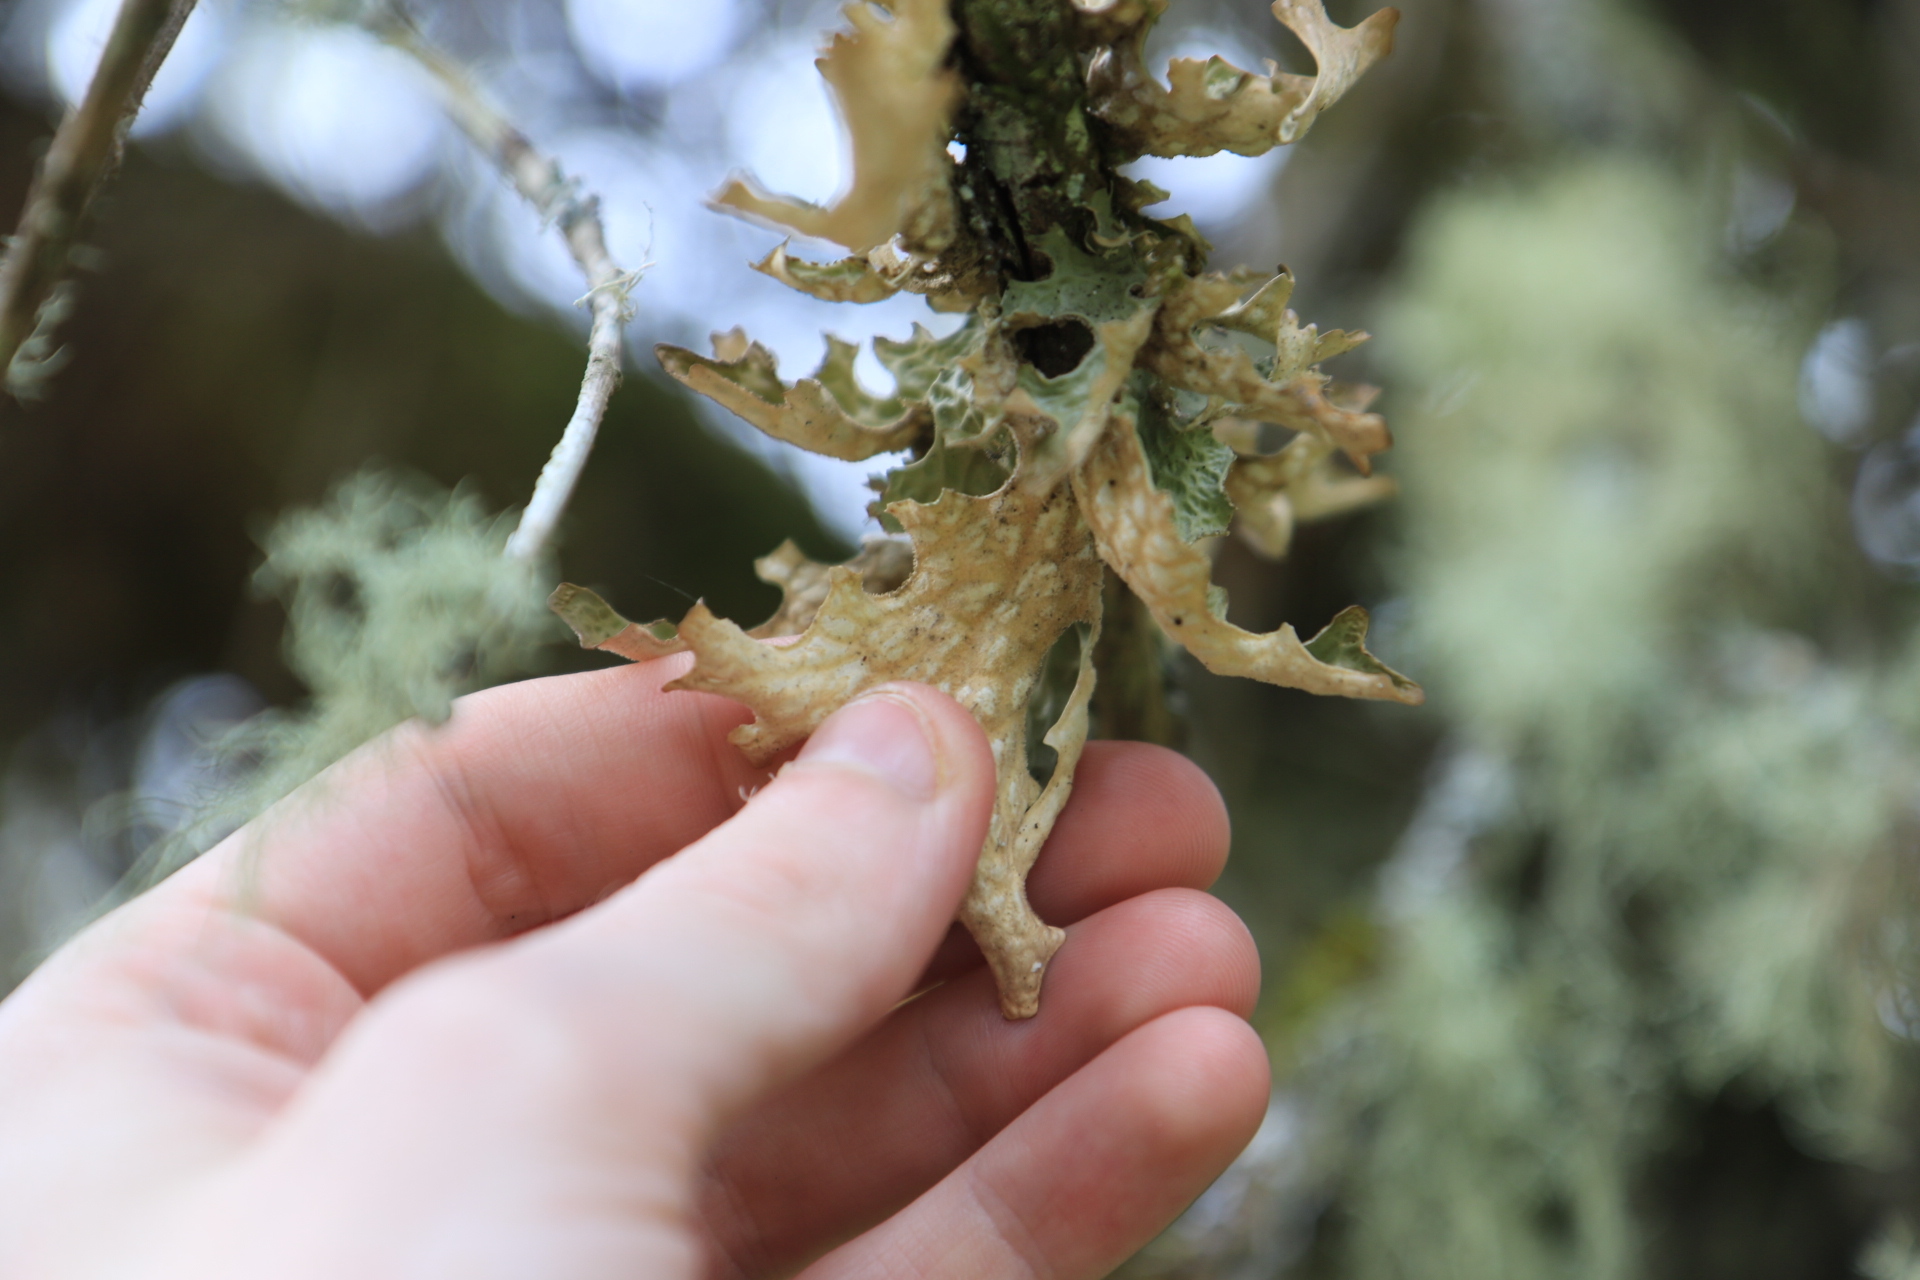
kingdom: Fungi
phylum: Ascomycota
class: Lecanoromycetes
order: Peltigerales
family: Lobariaceae
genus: Lobaria
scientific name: Lobaria pulmonaria
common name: Lungwort
